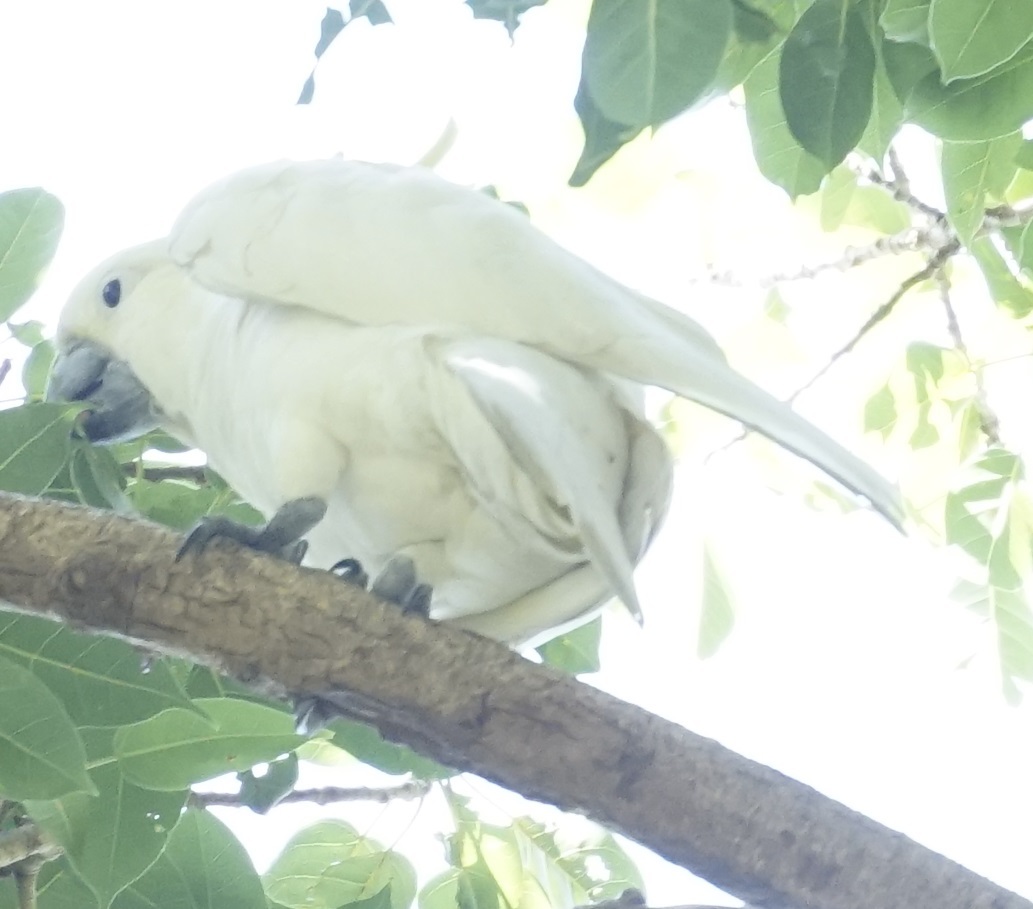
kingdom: Animalia
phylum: Chordata
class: Aves
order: Psittaciformes
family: Psittacidae
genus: Cacatua
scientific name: Cacatua galerita
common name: Sulphur-crested cockatoo
